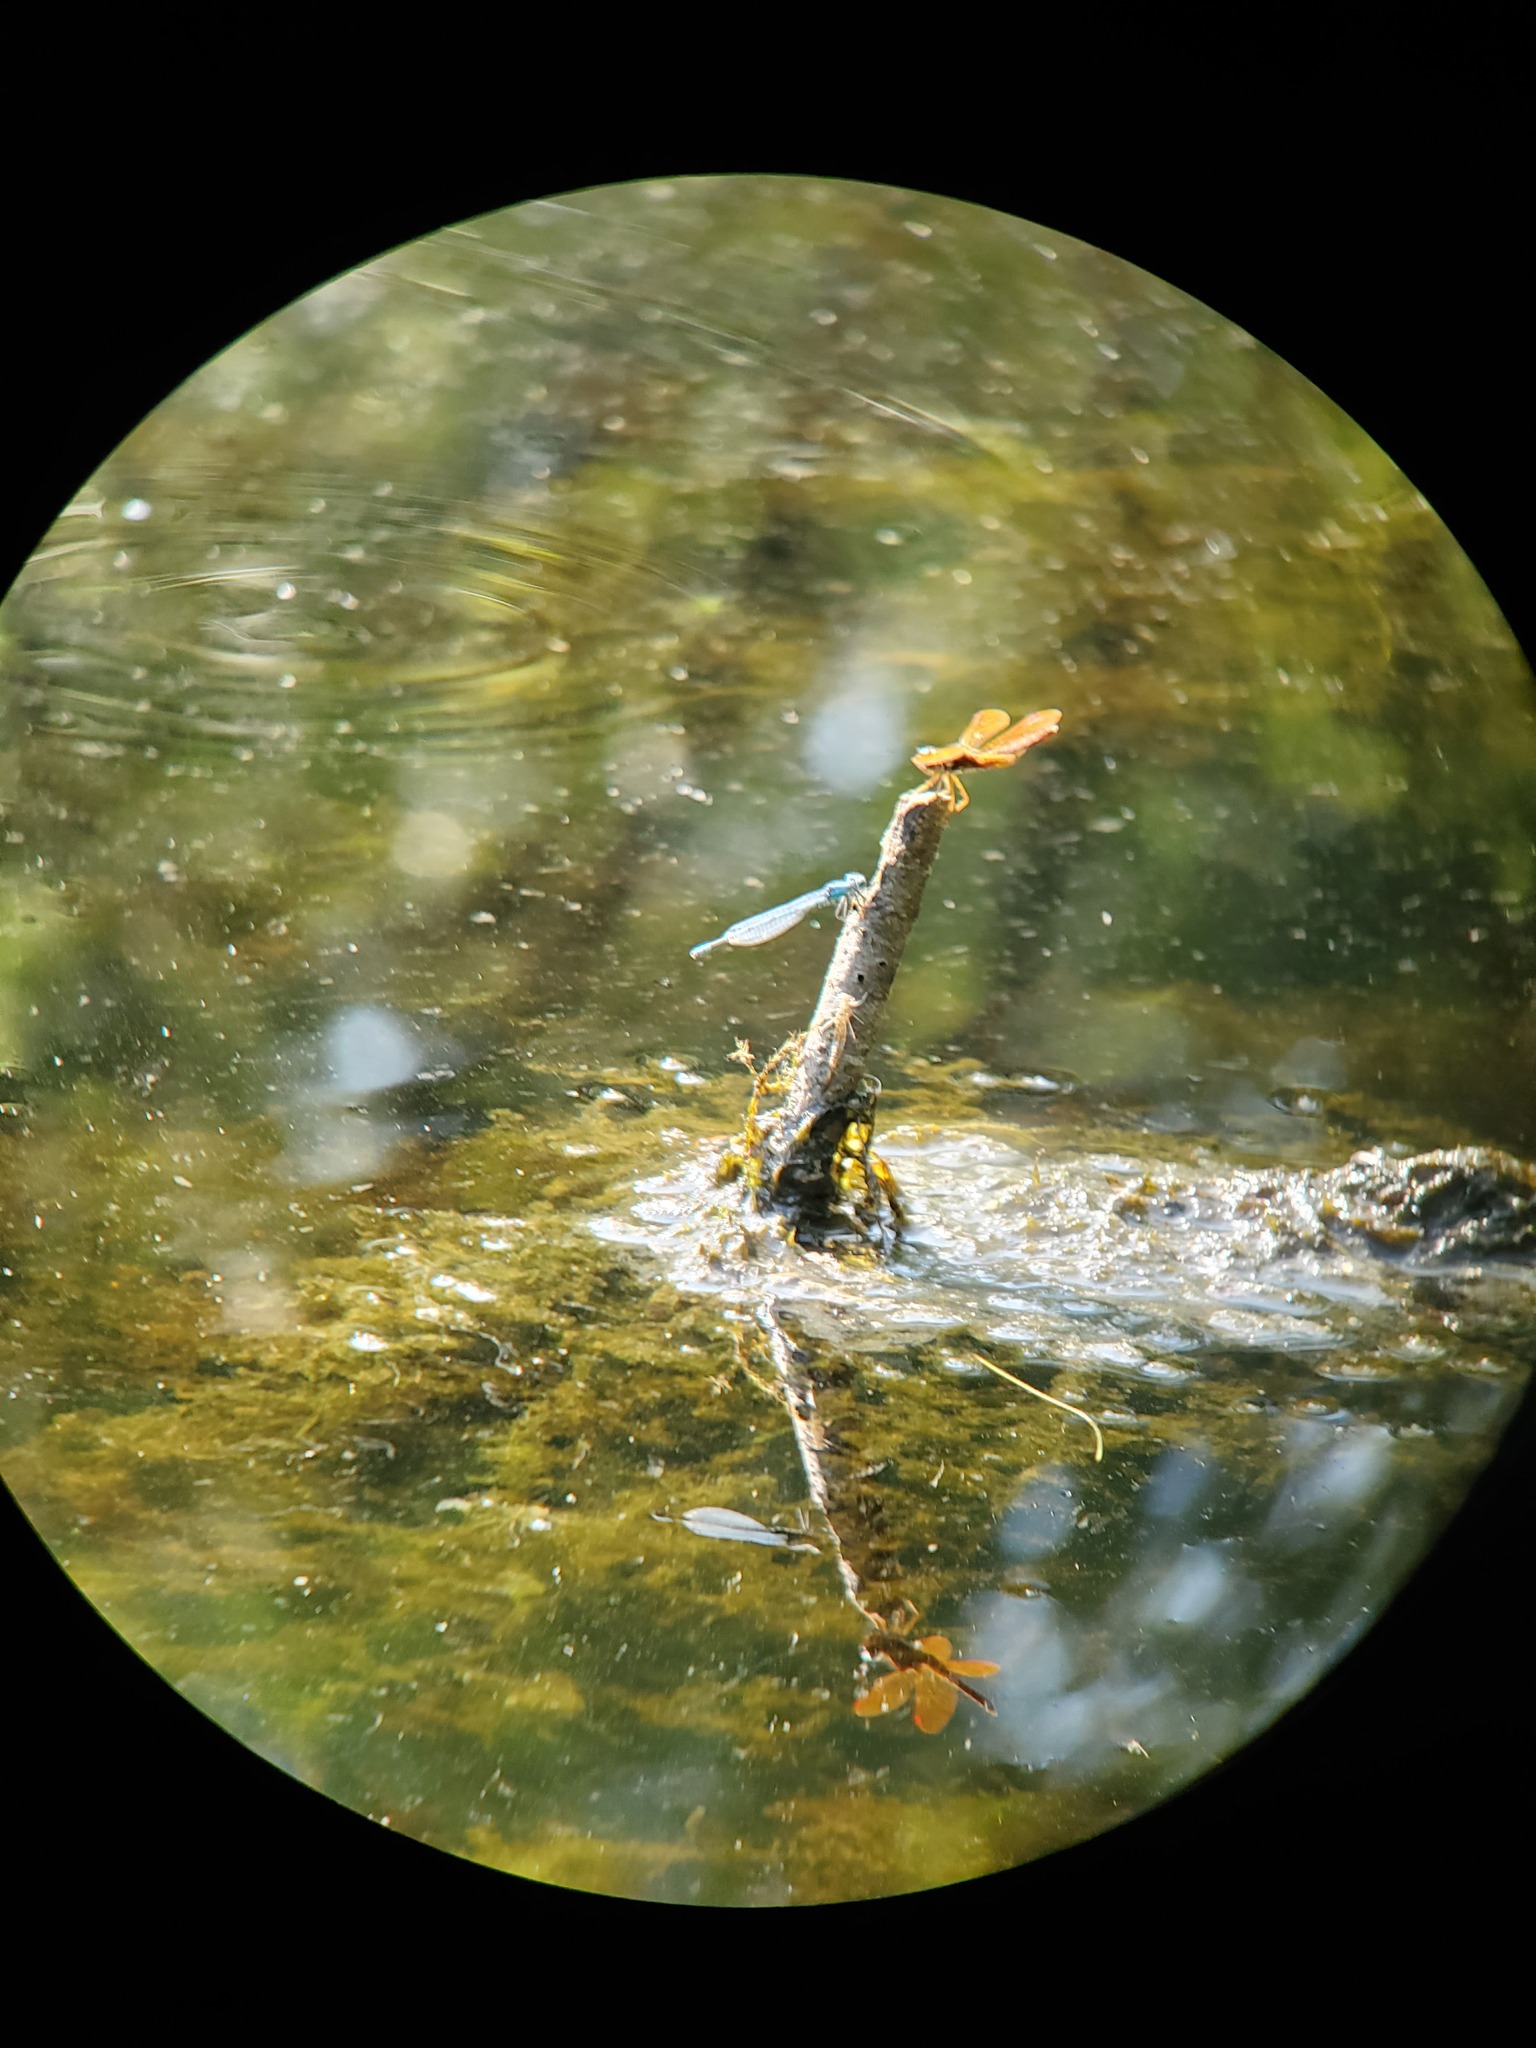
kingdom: Animalia
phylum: Arthropoda
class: Insecta
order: Odonata
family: Libellulidae
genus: Perithemis
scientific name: Perithemis tenera
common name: Eastern amberwing
